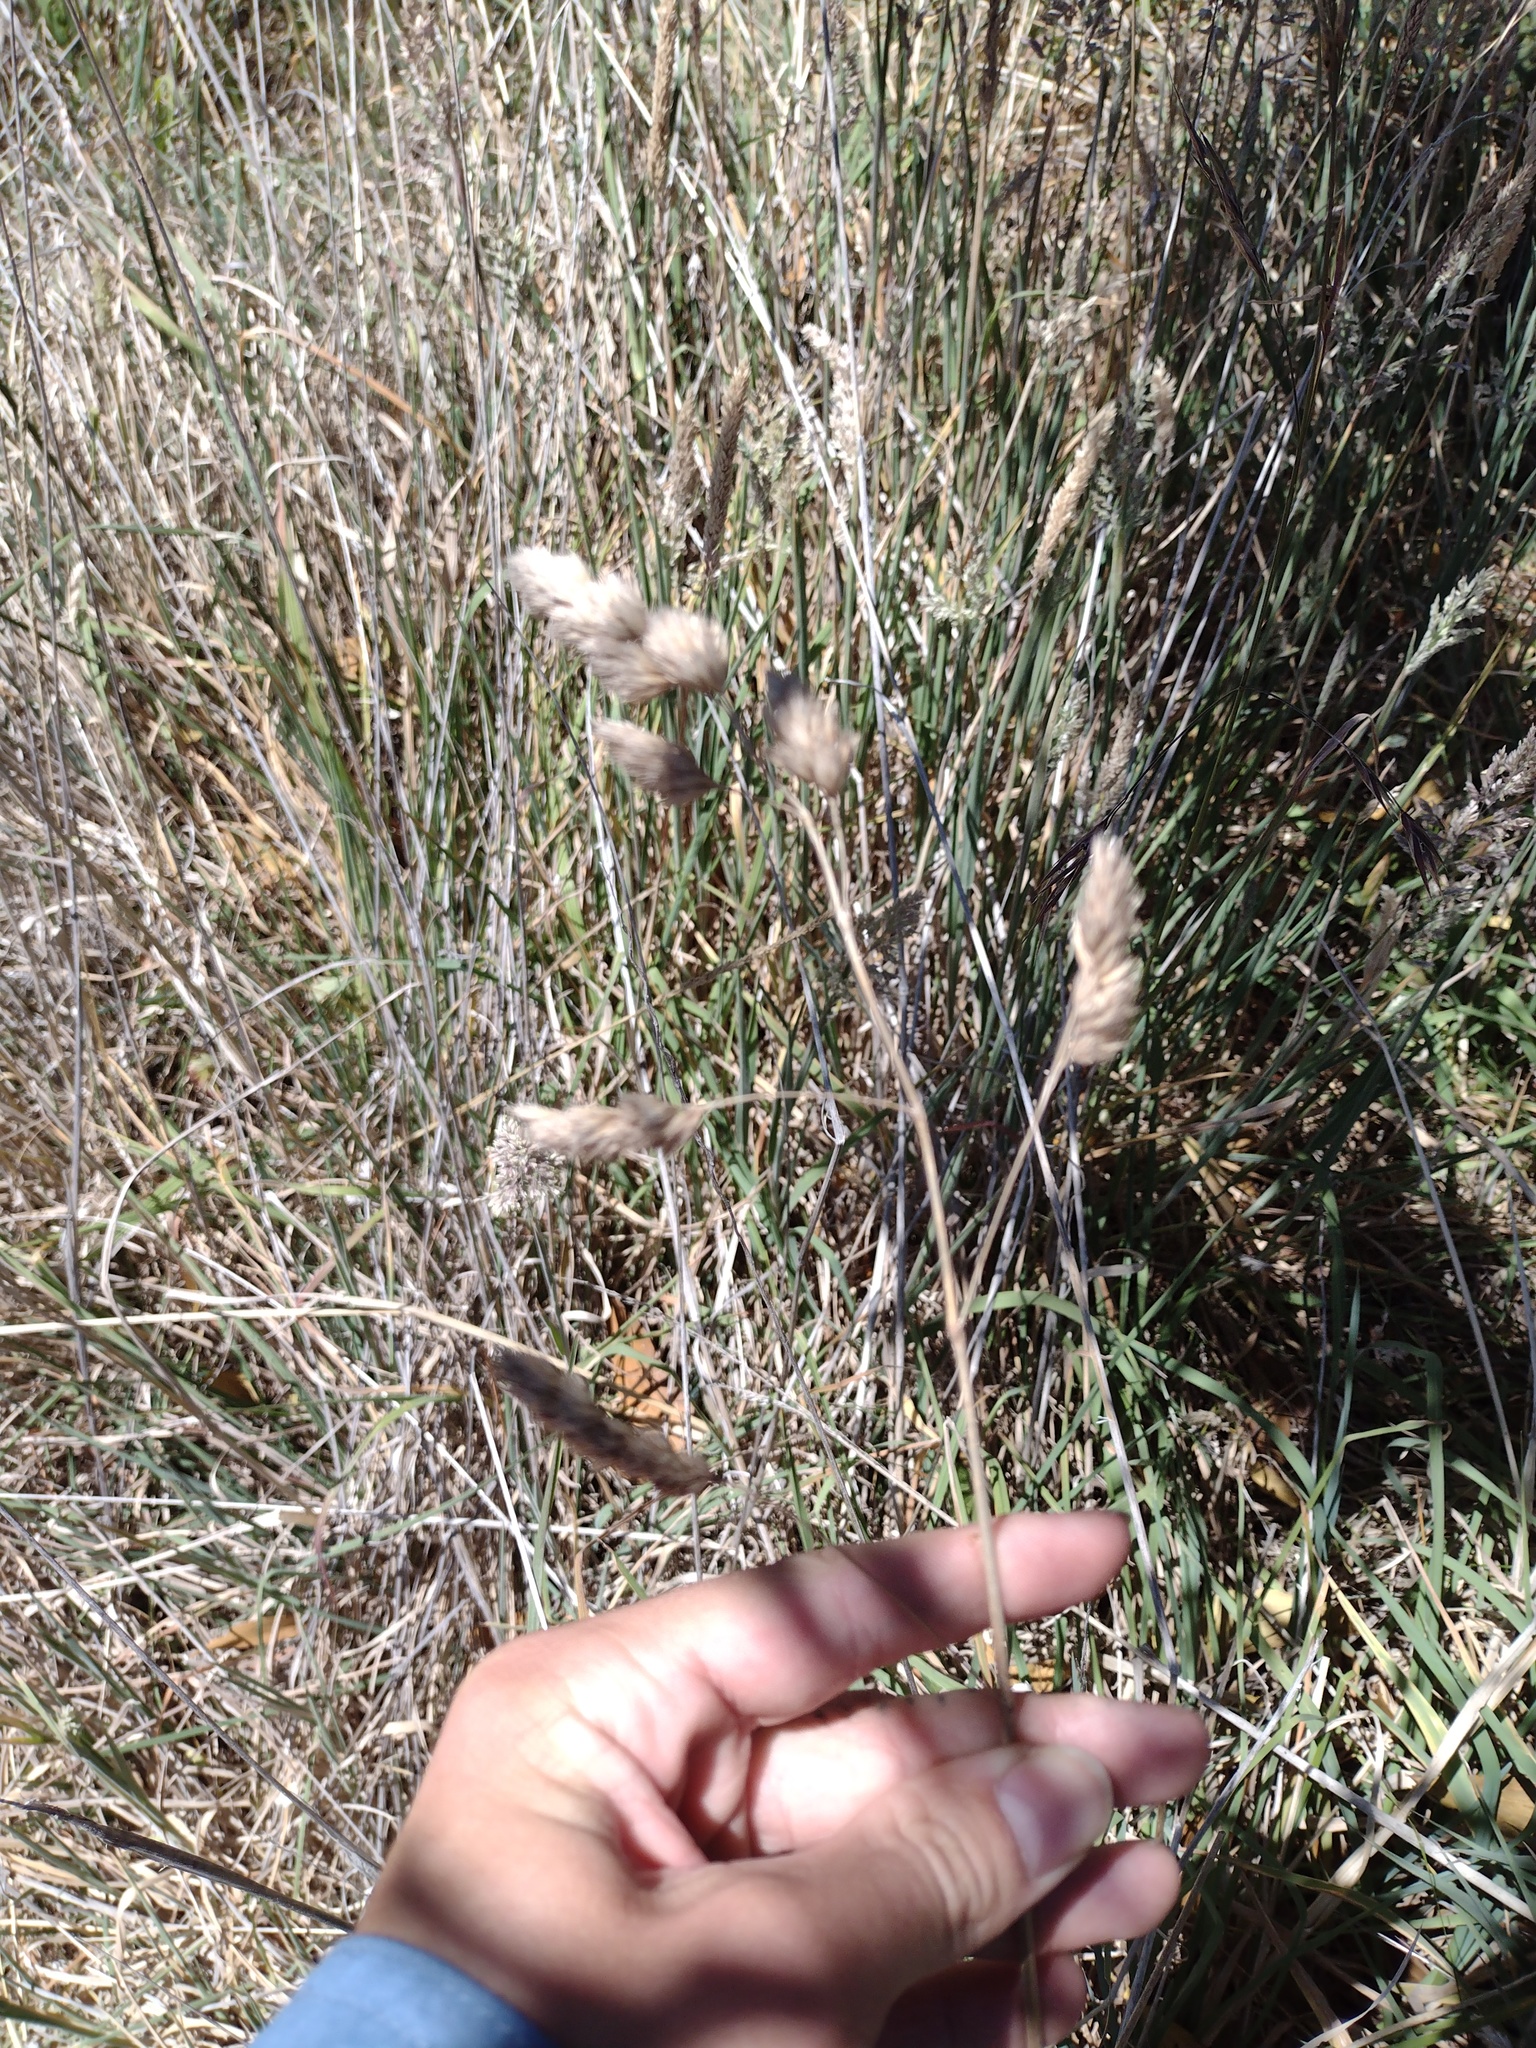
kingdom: Plantae
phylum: Tracheophyta
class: Liliopsida
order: Poales
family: Poaceae
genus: Dactylis
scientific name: Dactylis glomerata
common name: Orchardgrass
